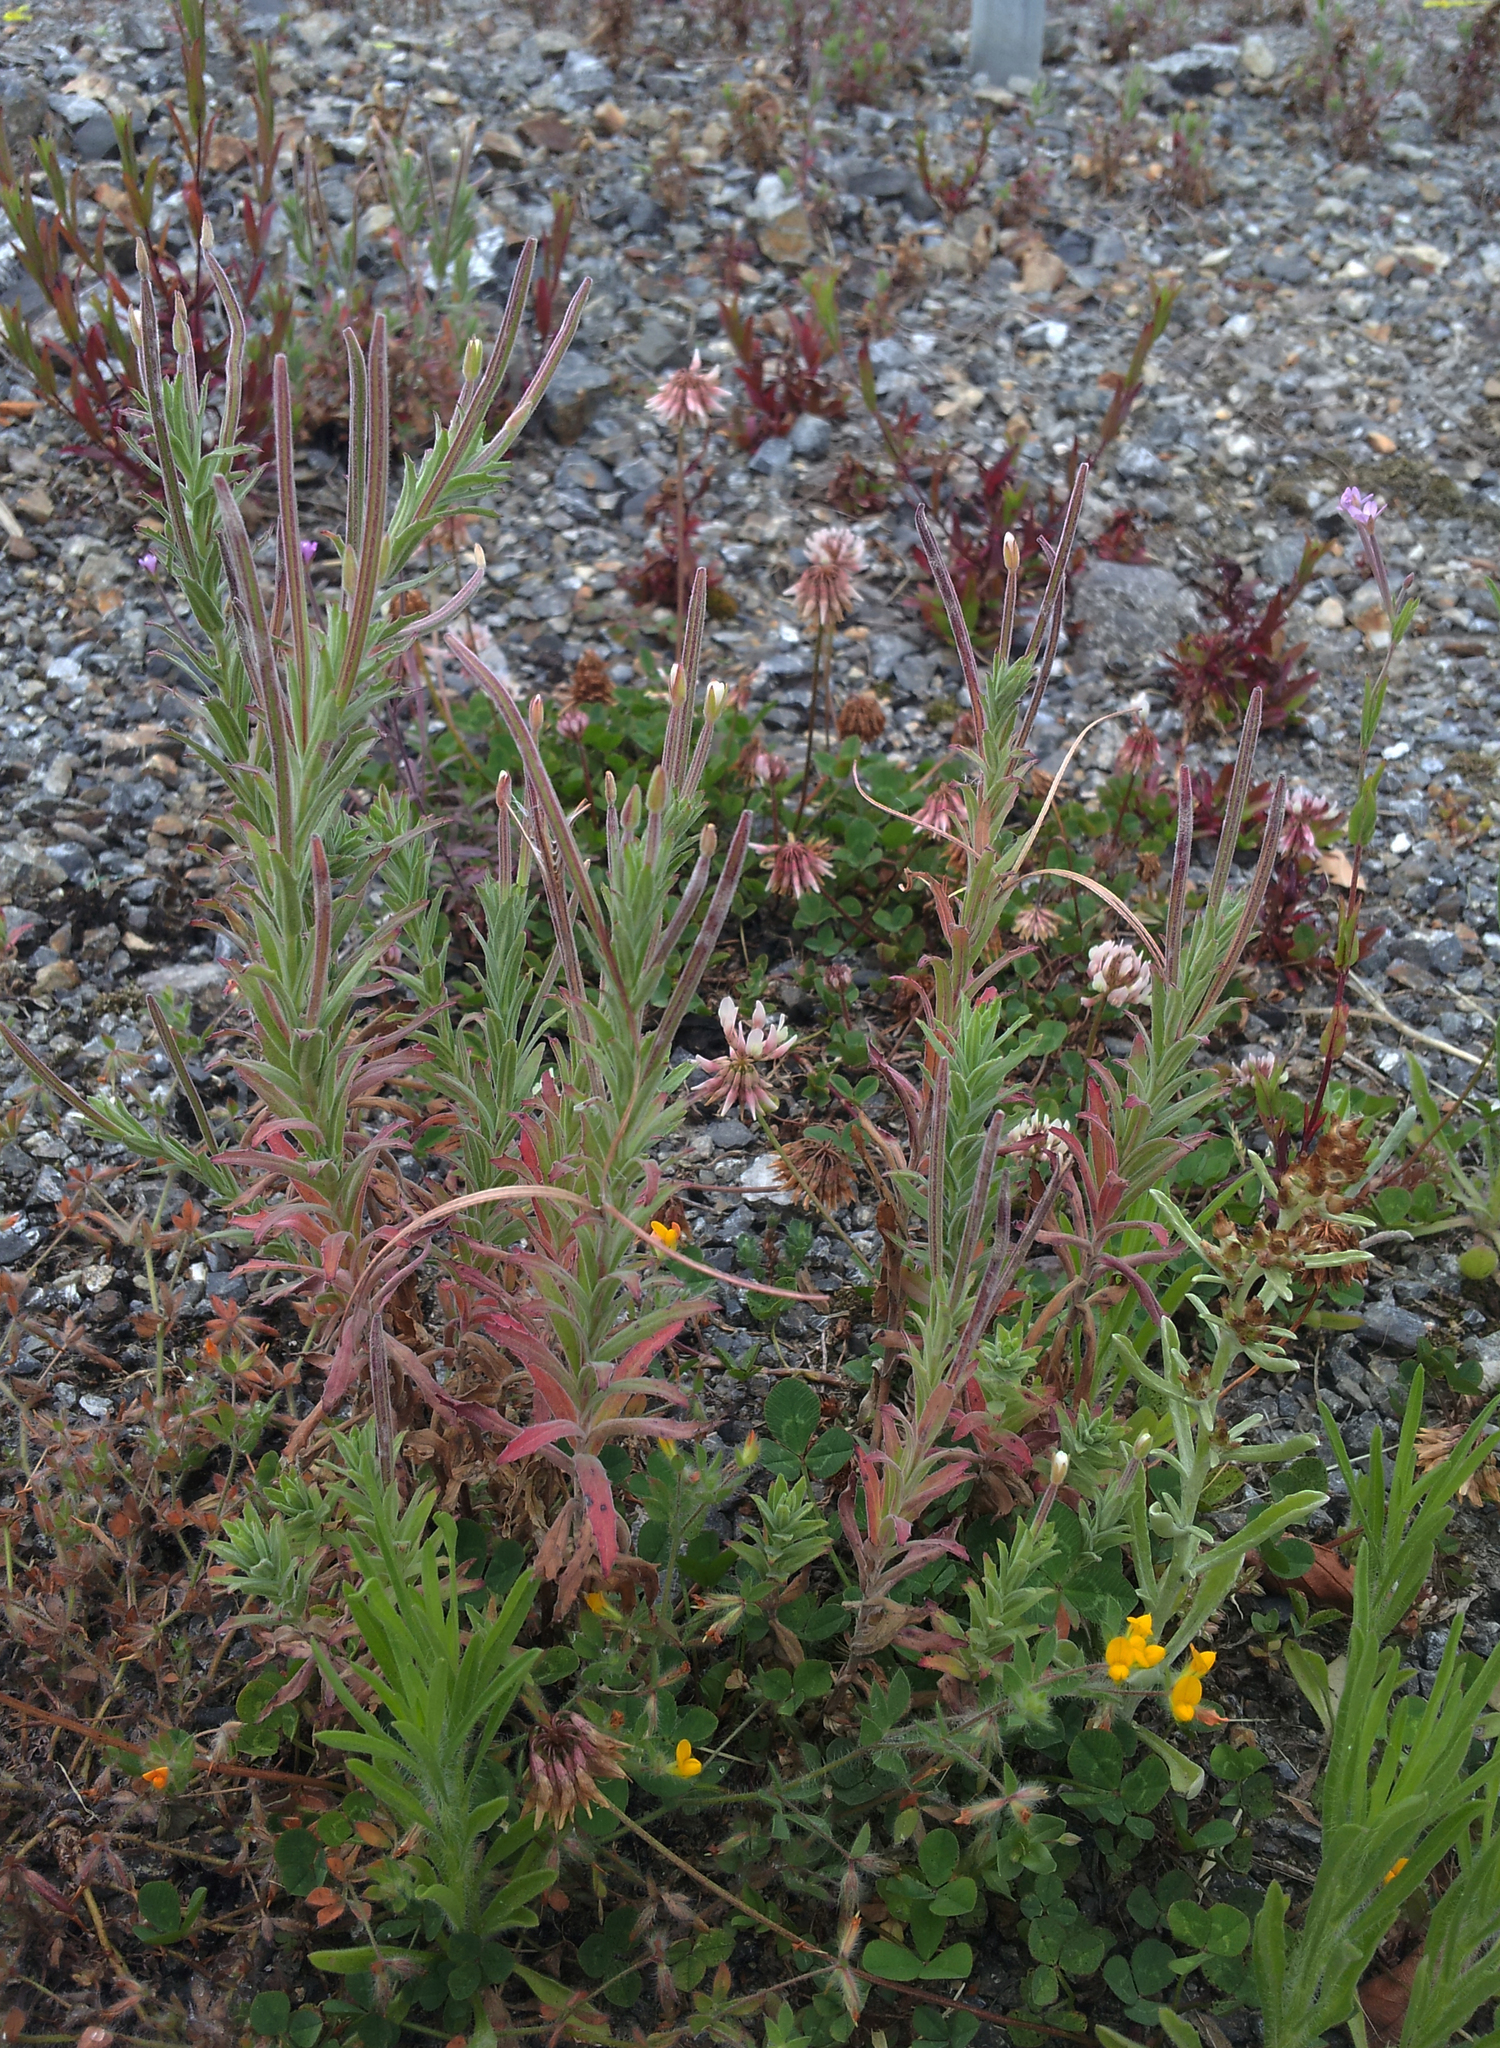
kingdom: Plantae
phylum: Tracheophyta
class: Magnoliopsida
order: Myrtales
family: Onagraceae
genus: Epilobium
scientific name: Epilobium hirtigerum
